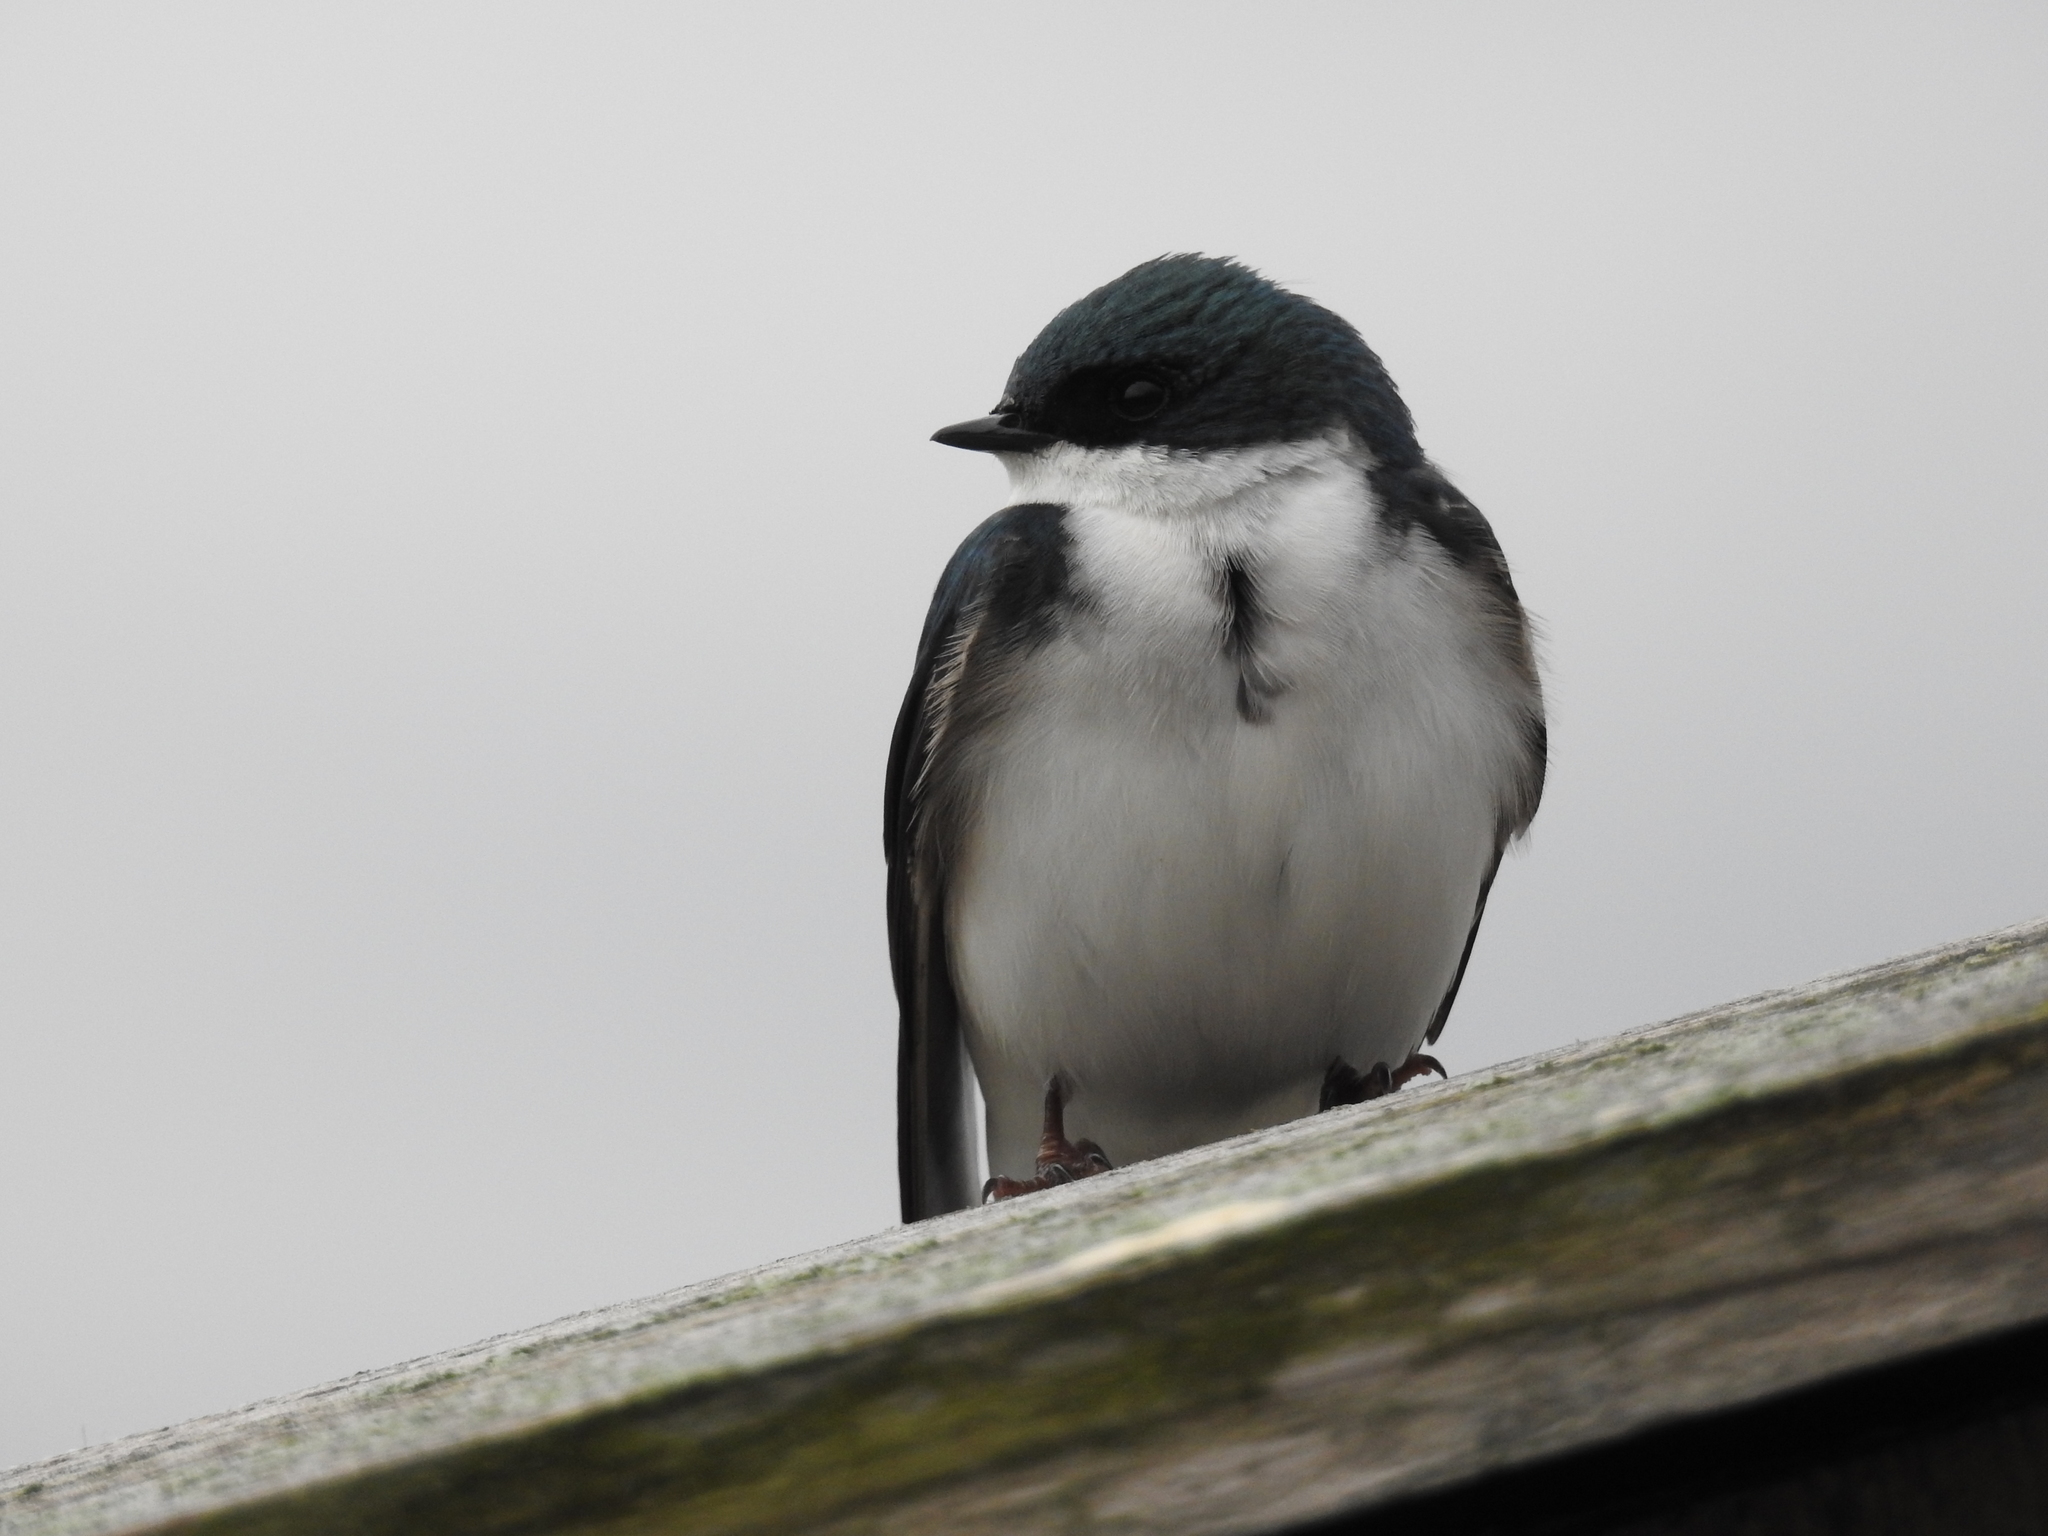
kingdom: Animalia
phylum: Chordata
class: Aves
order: Passeriformes
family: Hirundinidae
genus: Tachycineta
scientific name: Tachycineta bicolor
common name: Tree swallow
